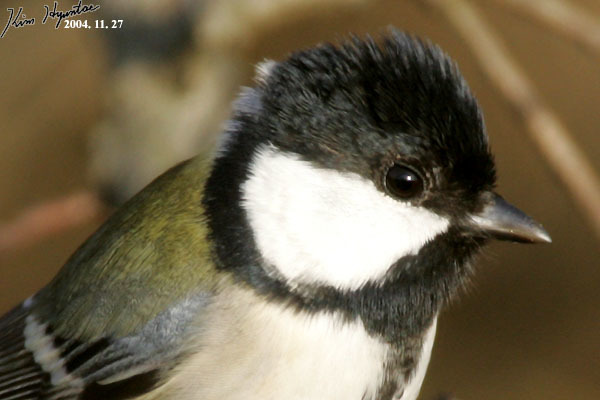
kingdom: Animalia
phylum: Chordata
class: Aves
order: Passeriformes
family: Paridae
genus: Parus
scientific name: Parus minor
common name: Japanese tit
